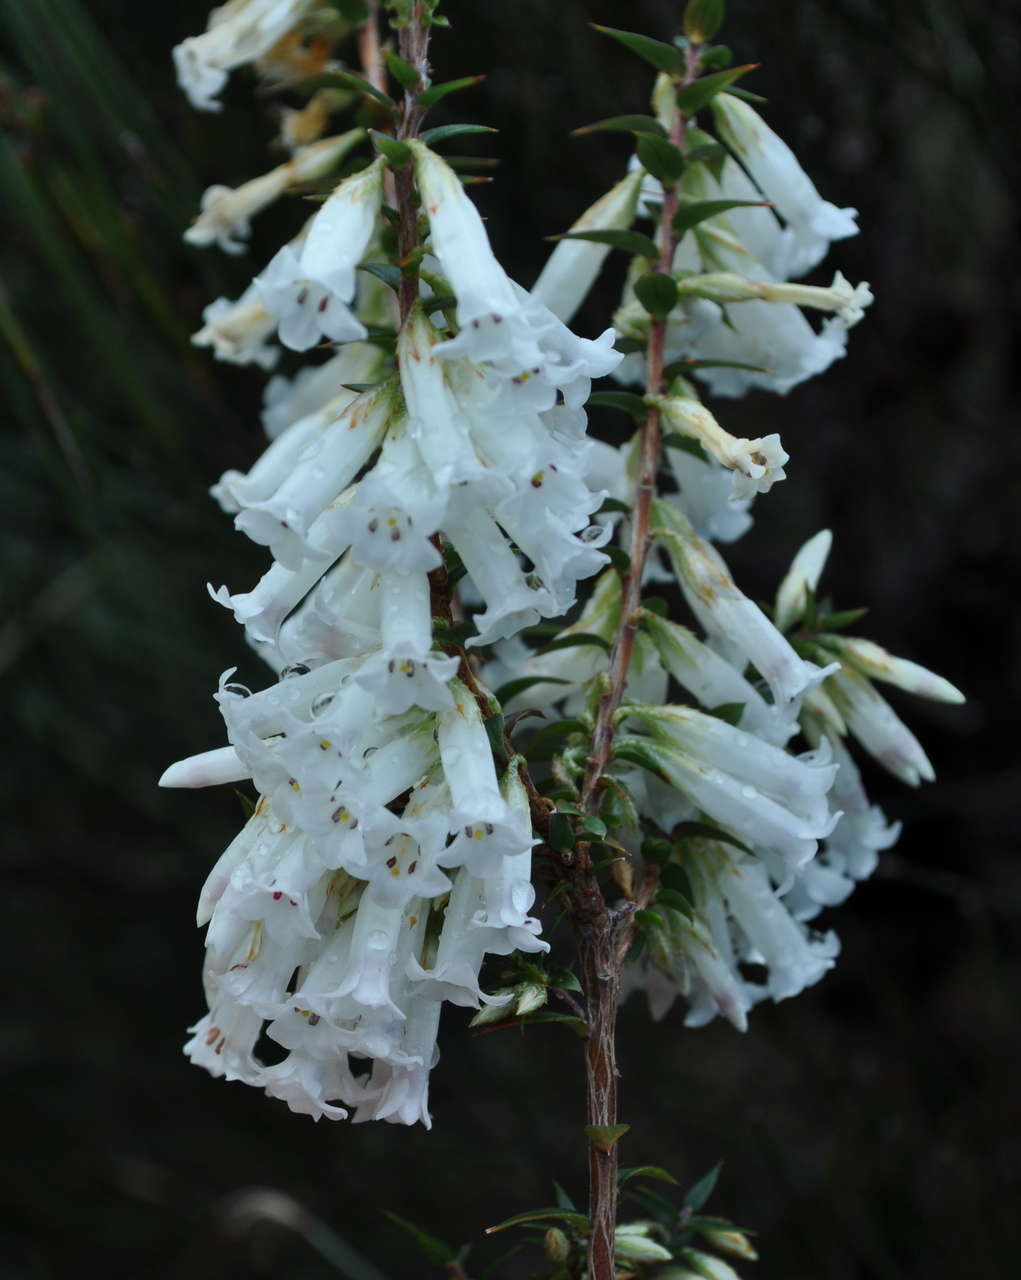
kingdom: Plantae
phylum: Tracheophyta
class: Magnoliopsida
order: Ericales
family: Ericaceae
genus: Epacris
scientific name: Epacris impressa
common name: Common-heath
